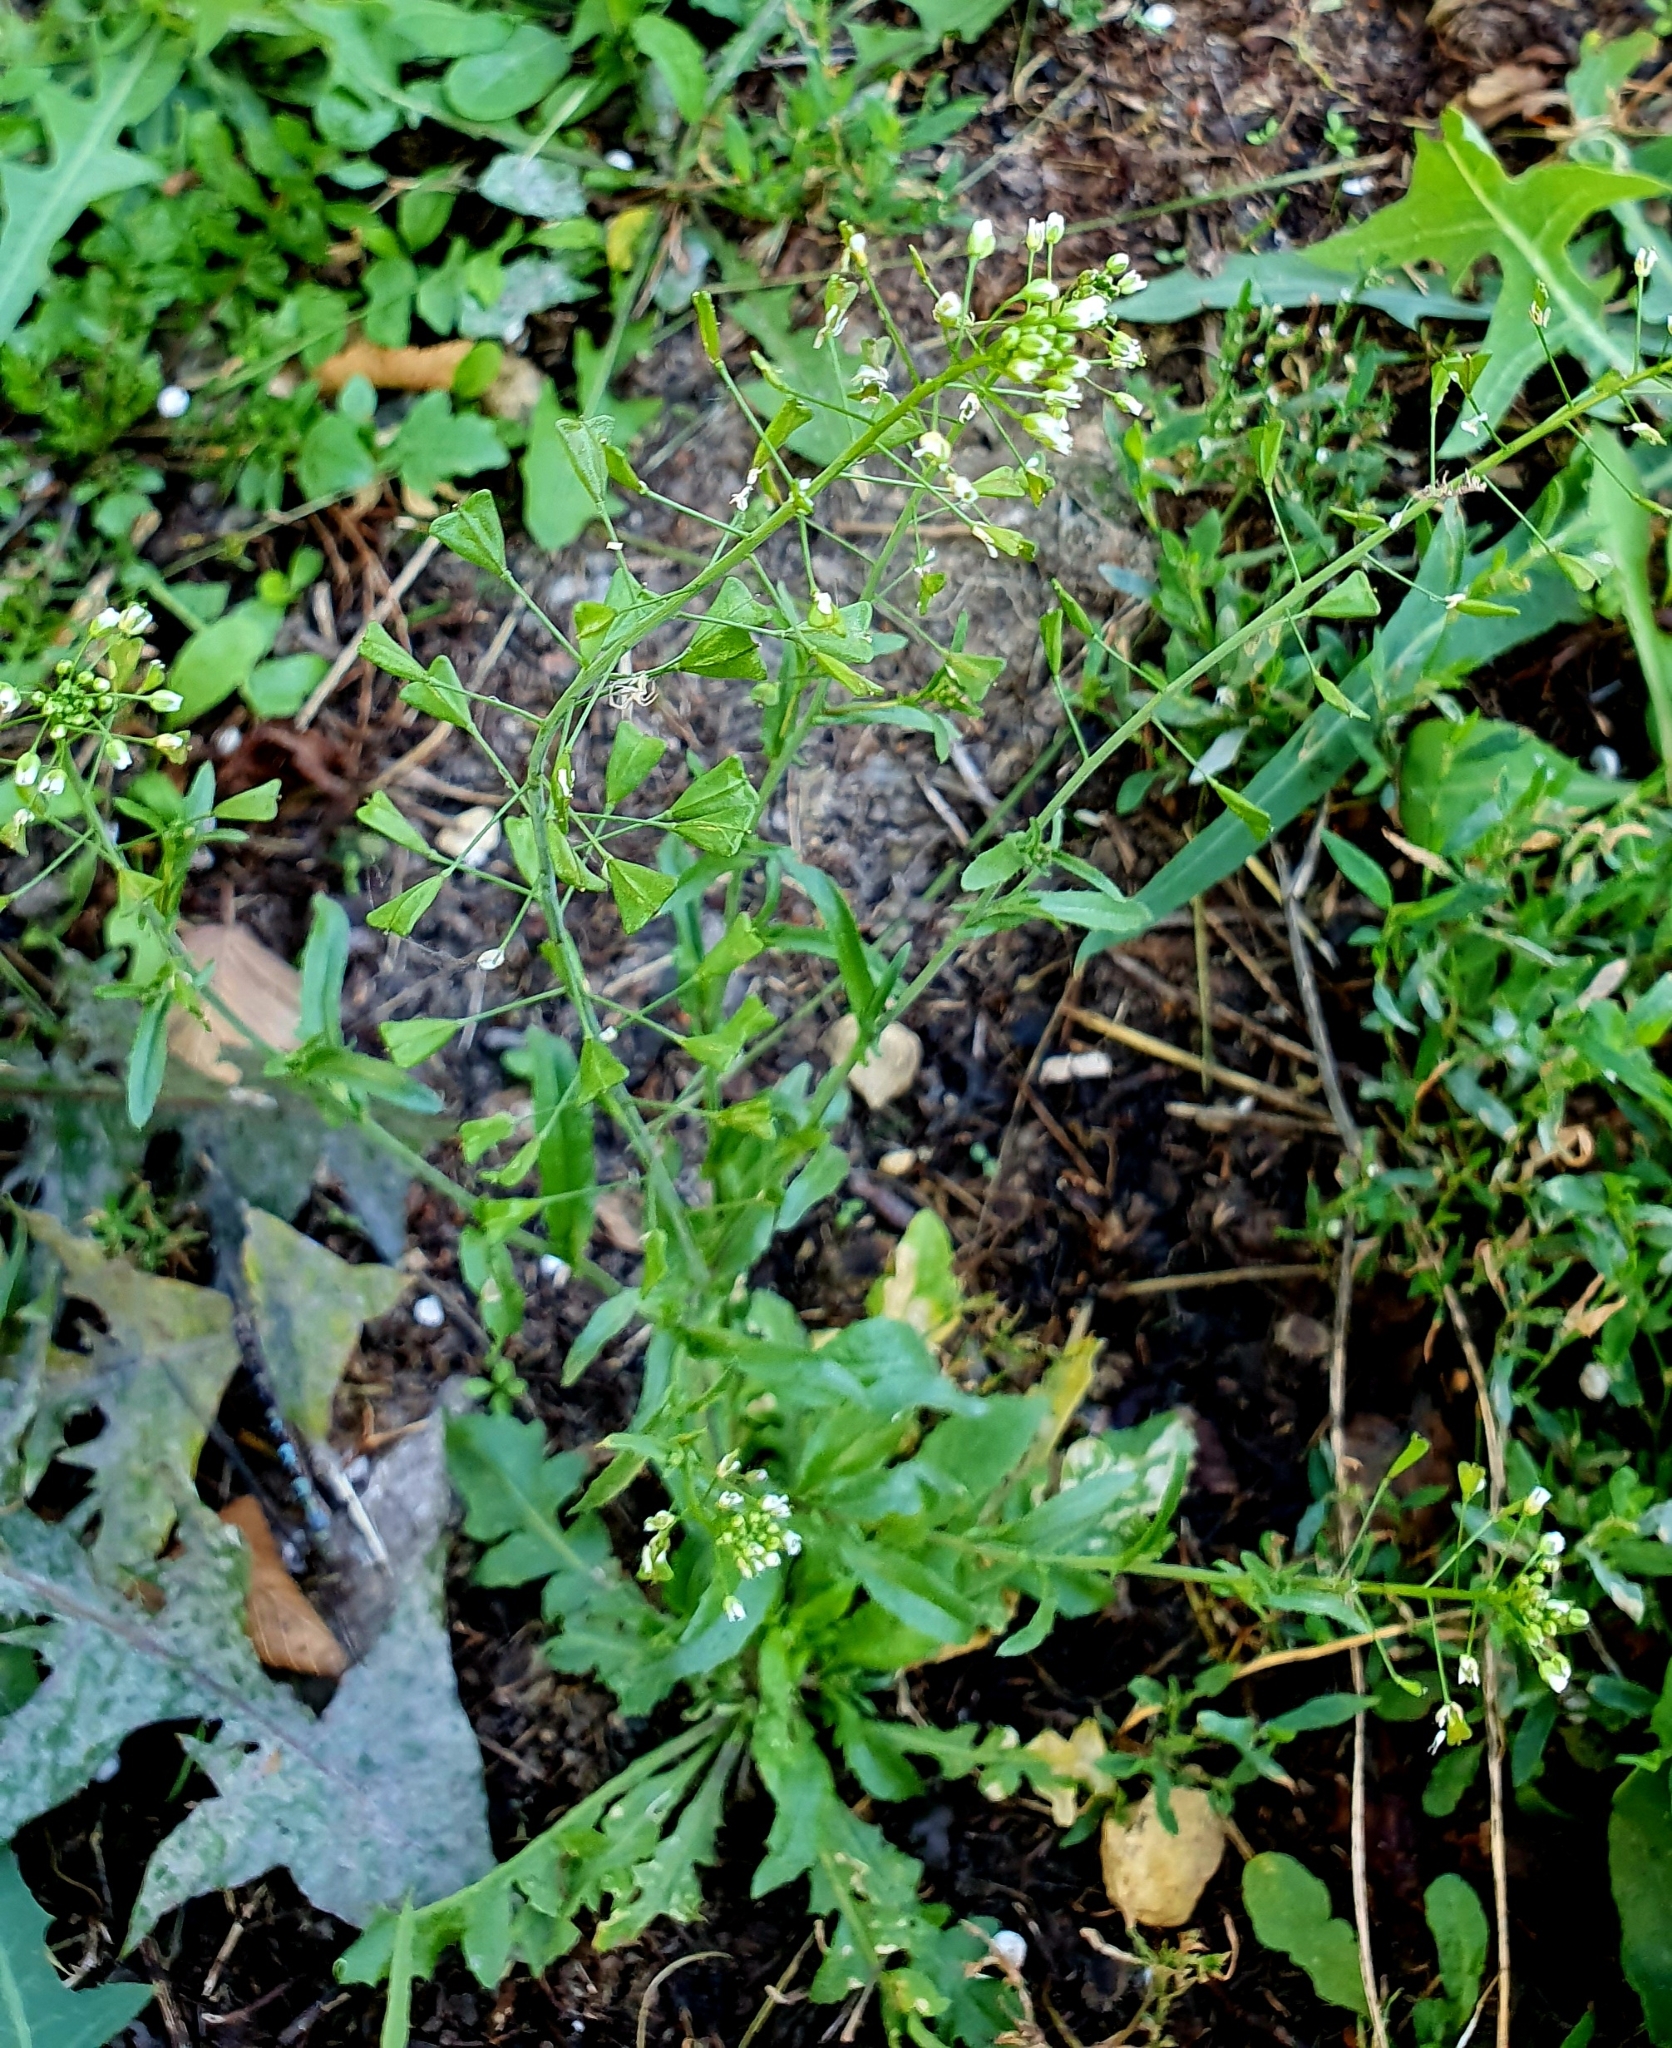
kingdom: Plantae
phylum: Tracheophyta
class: Magnoliopsida
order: Brassicales
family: Brassicaceae
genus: Capsella
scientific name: Capsella bursa-pastoris
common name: Shepherd's purse
